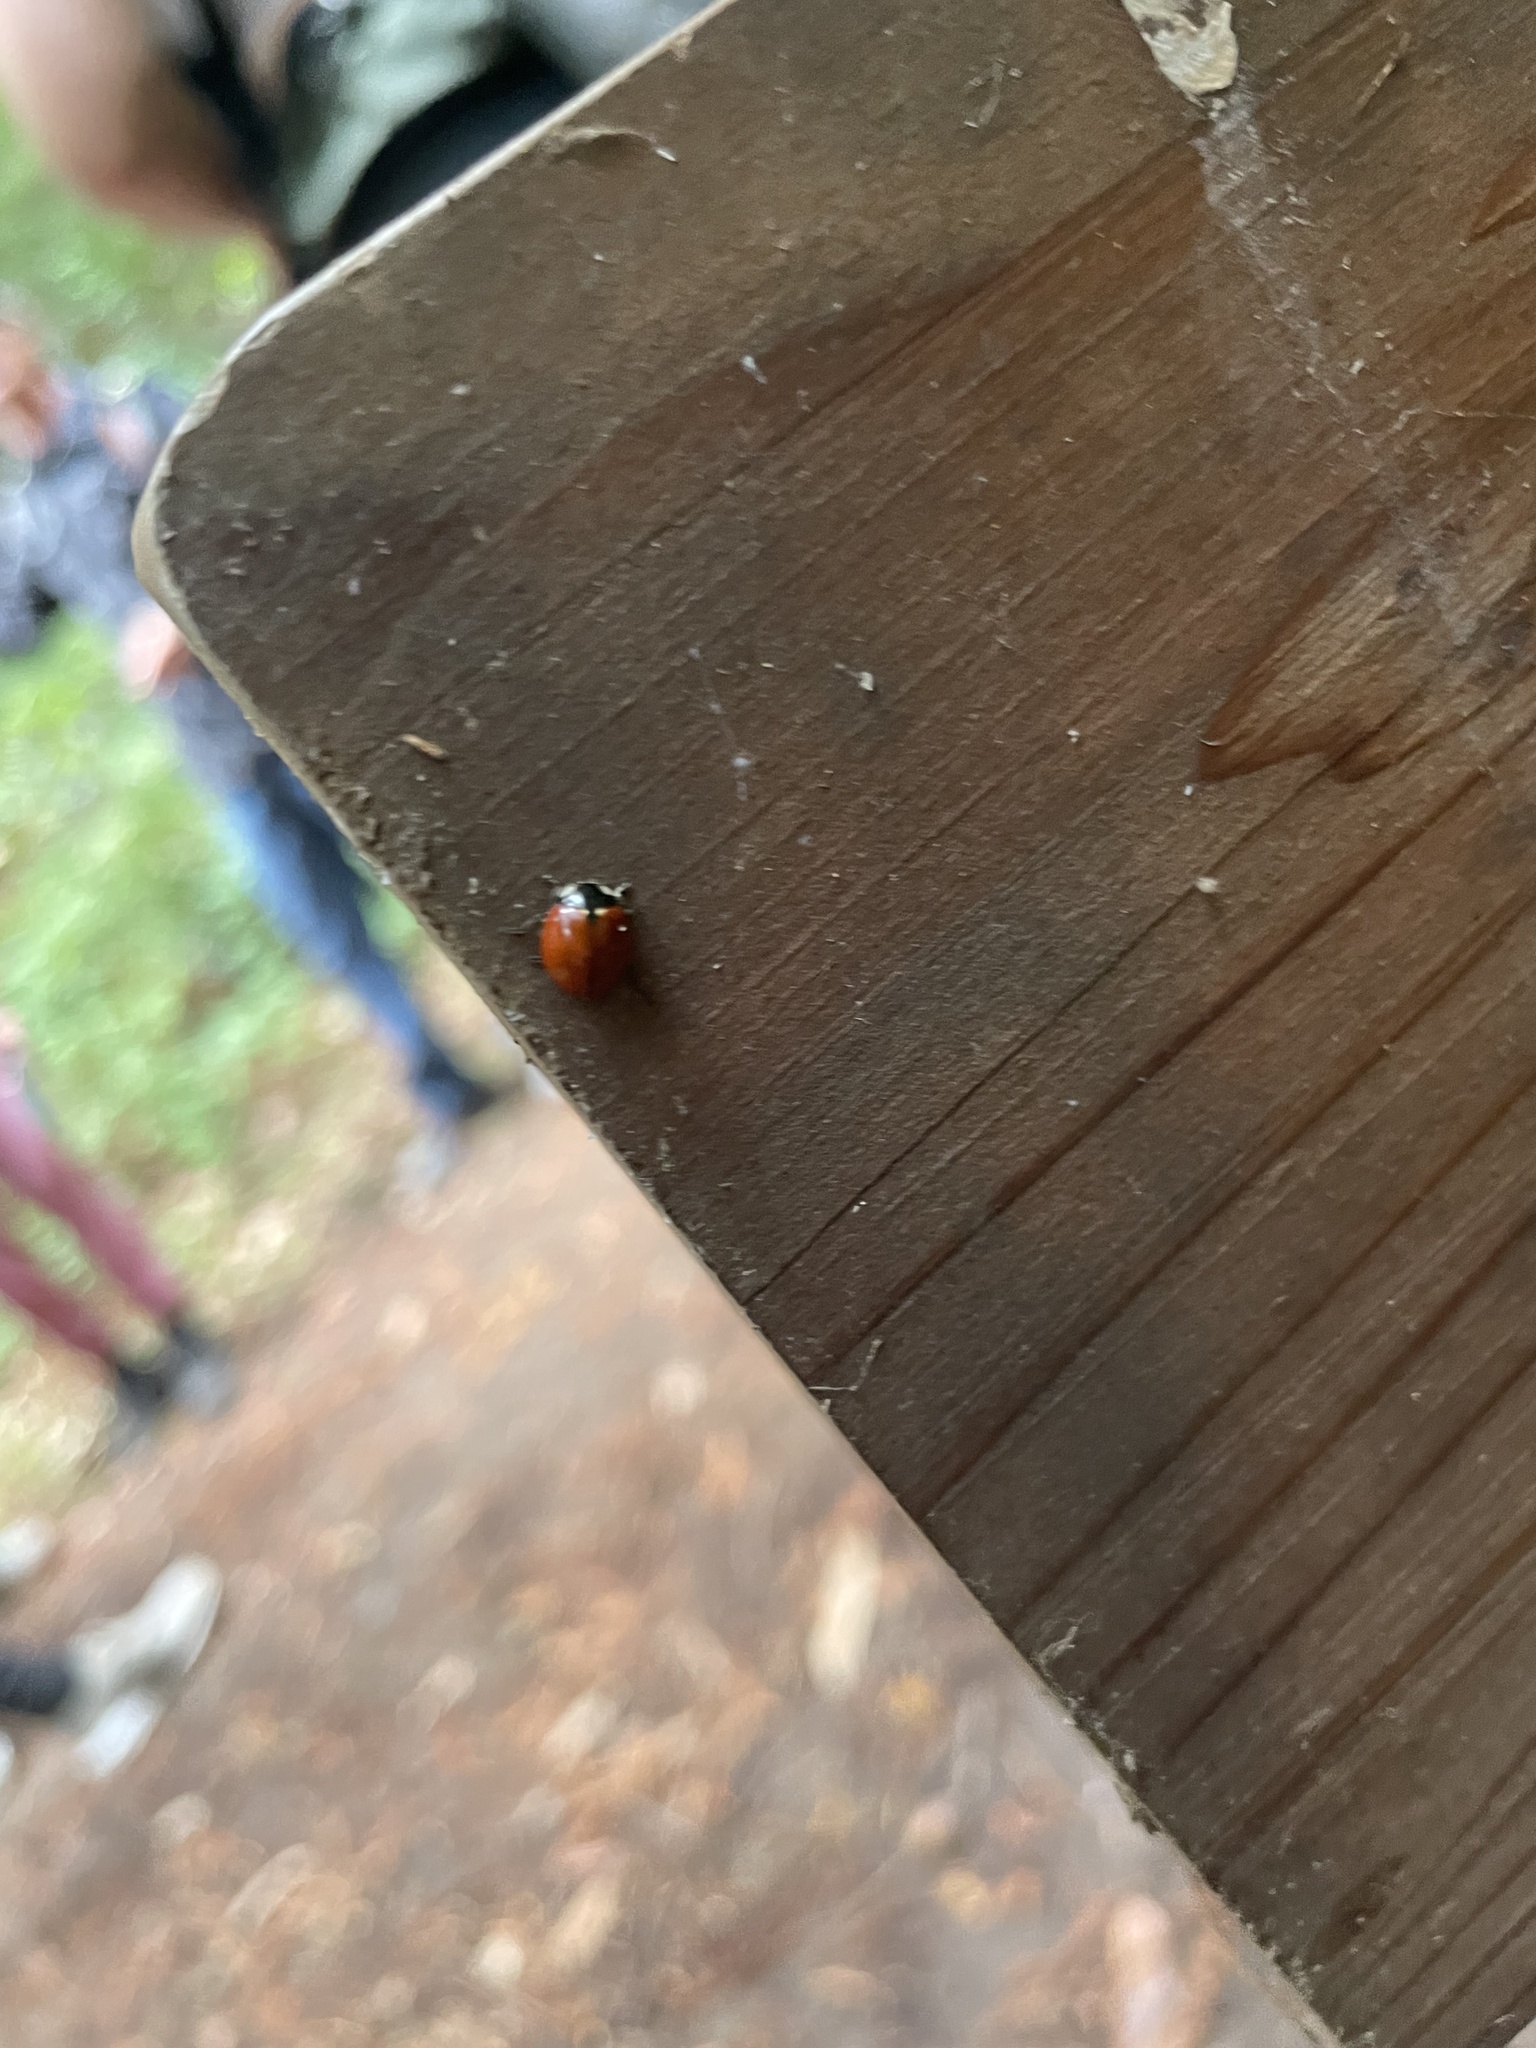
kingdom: Animalia
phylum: Arthropoda
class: Insecta
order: Coleoptera
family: Coccinellidae
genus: Coccinella
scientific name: Coccinella californica
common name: Lady beetle
